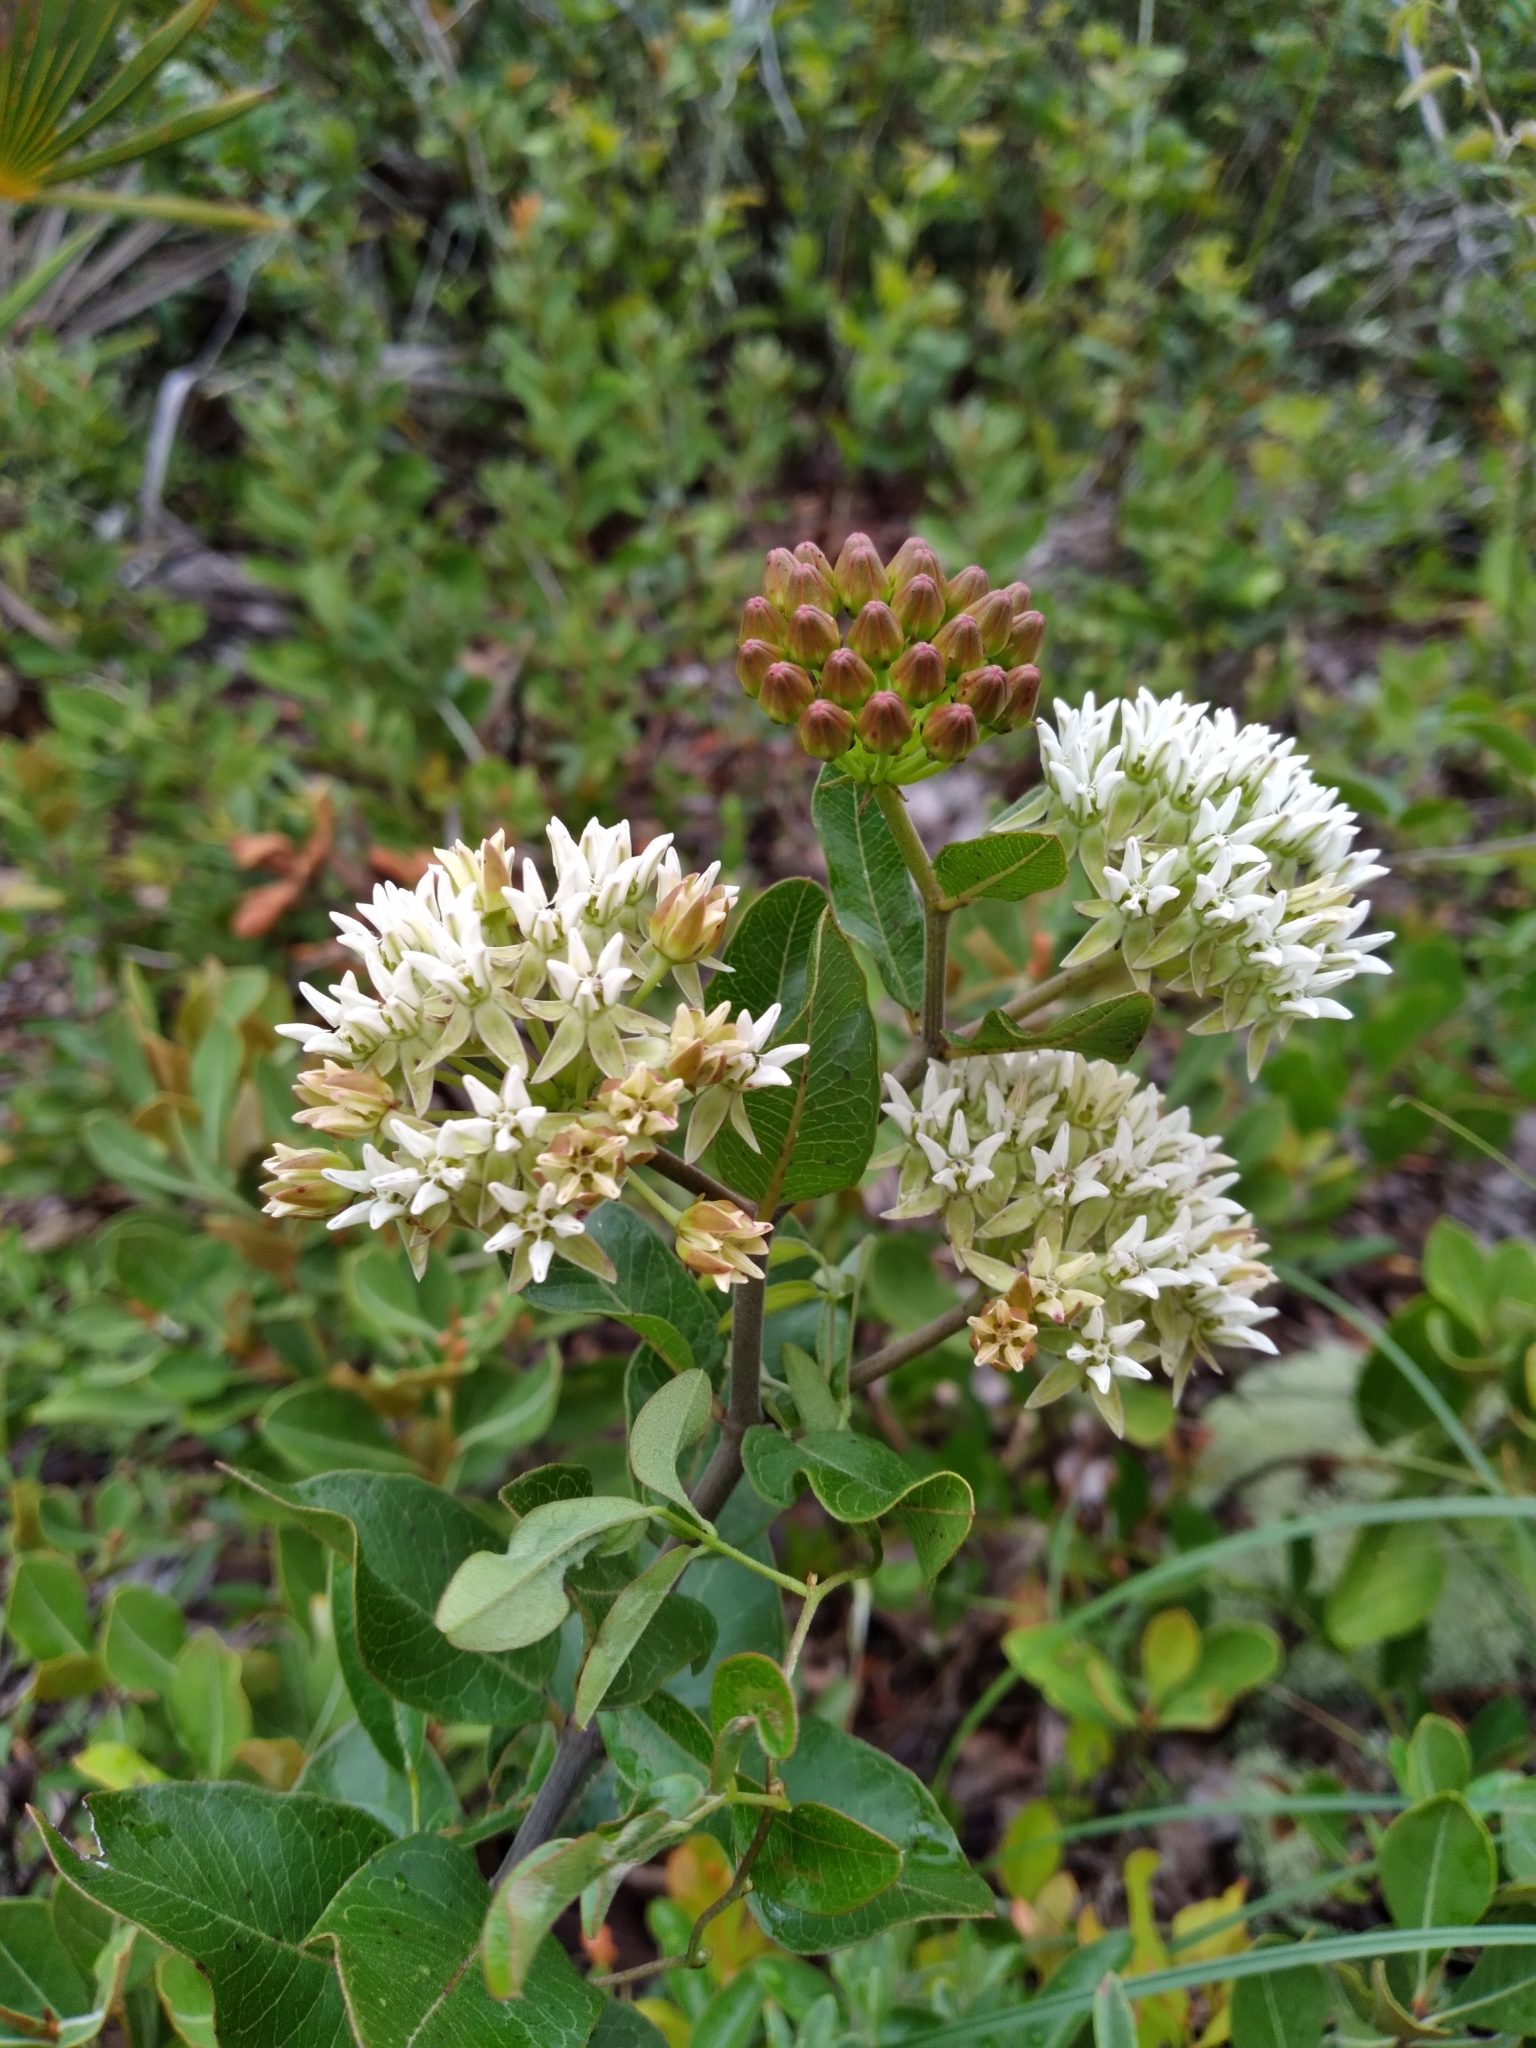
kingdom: Plantae
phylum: Tracheophyta
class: Magnoliopsida
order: Gentianales
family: Apocynaceae
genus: Asclepias
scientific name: Asclepias curtissii
